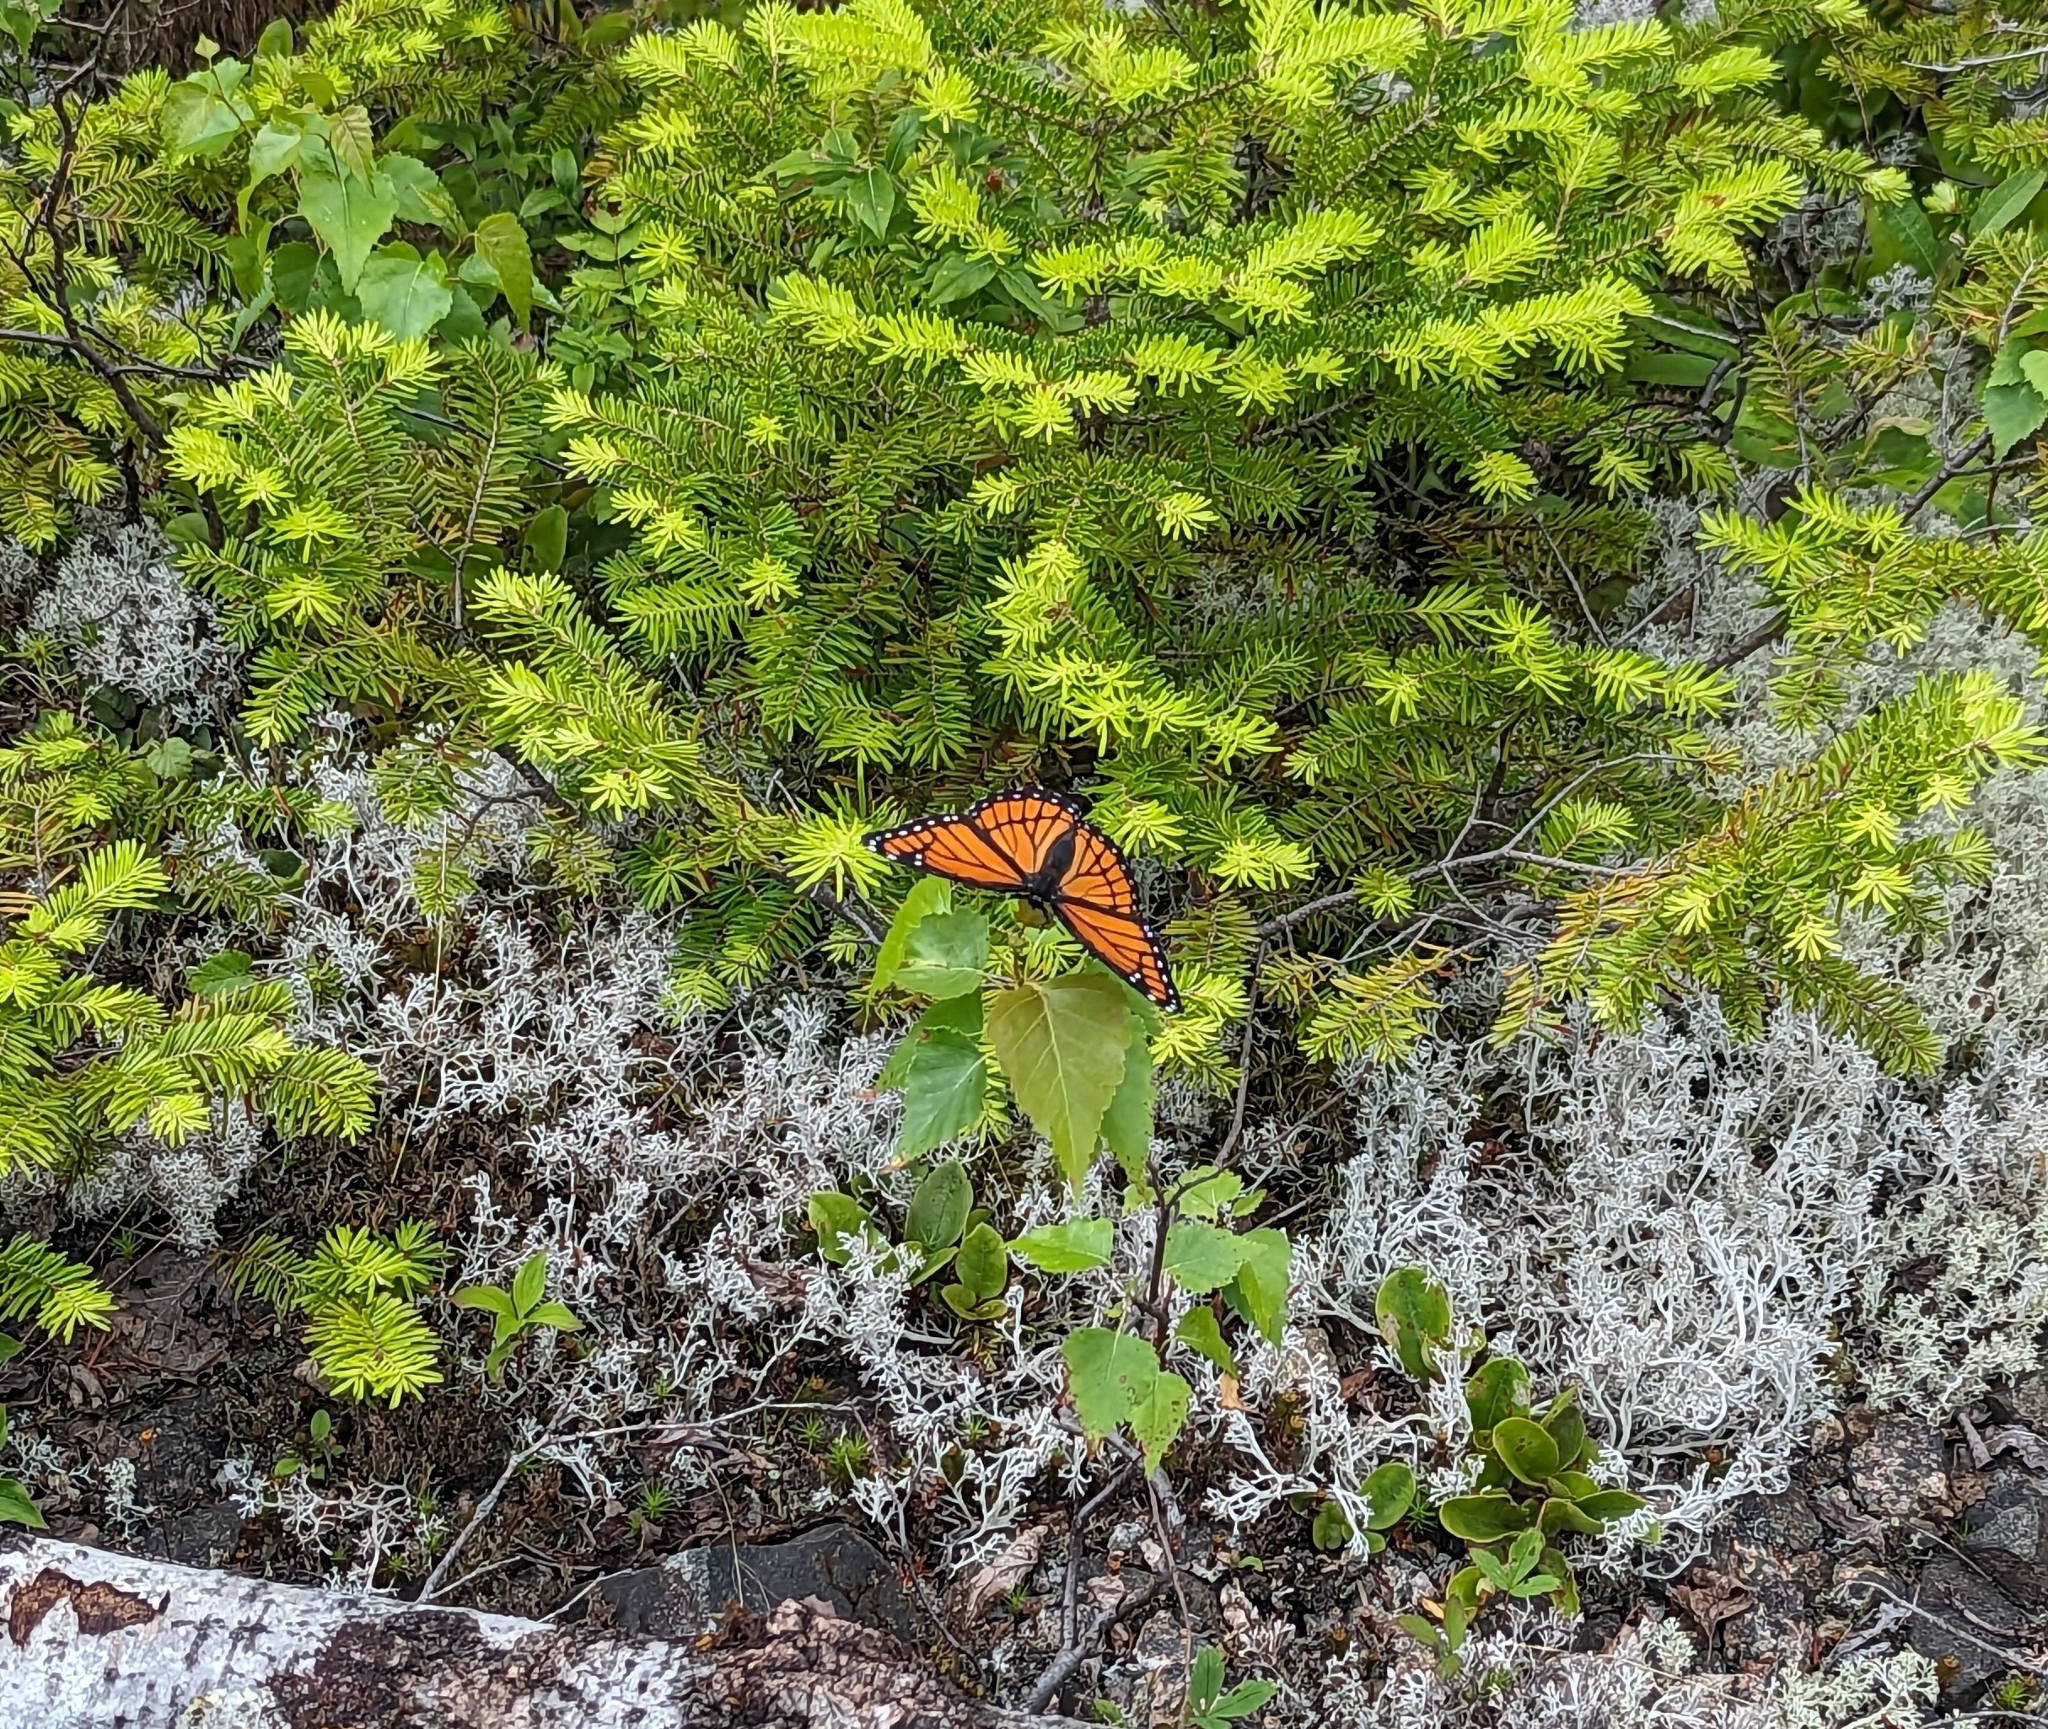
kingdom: Animalia
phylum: Arthropoda
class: Insecta
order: Lepidoptera
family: Nymphalidae
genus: Limenitis
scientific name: Limenitis archippus
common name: Viceroy
